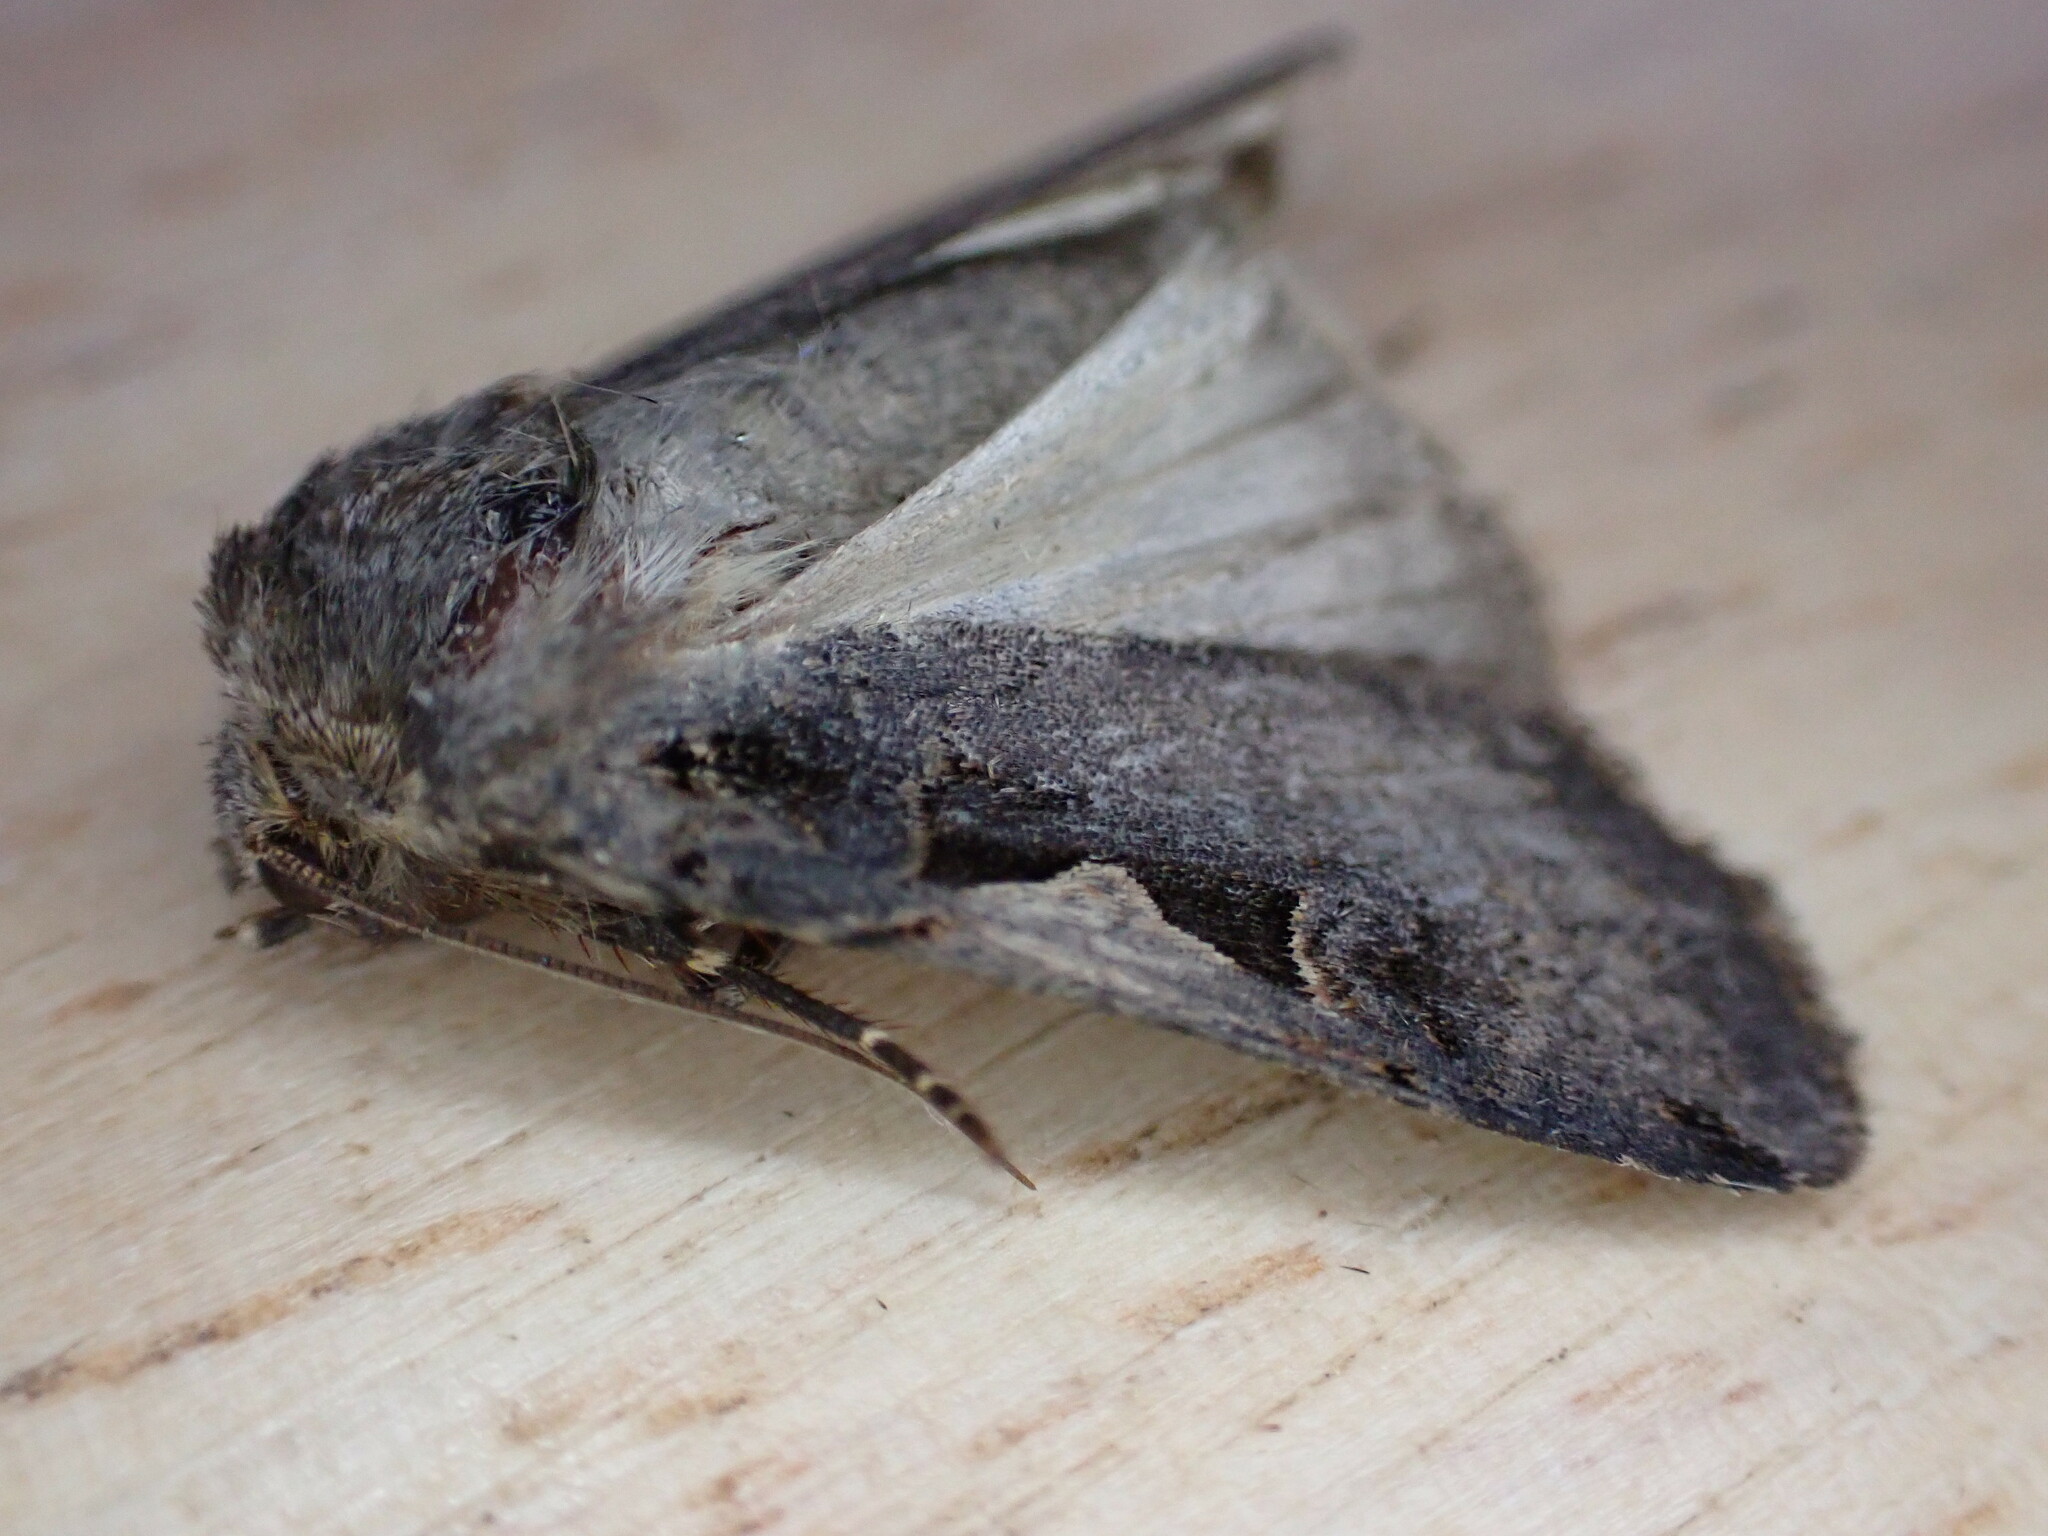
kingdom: Animalia
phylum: Arthropoda
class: Insecta
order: Lepidoptera
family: Noctuidae
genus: Xestia
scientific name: Xestia c-nigrum
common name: Setaceous hebrew character
